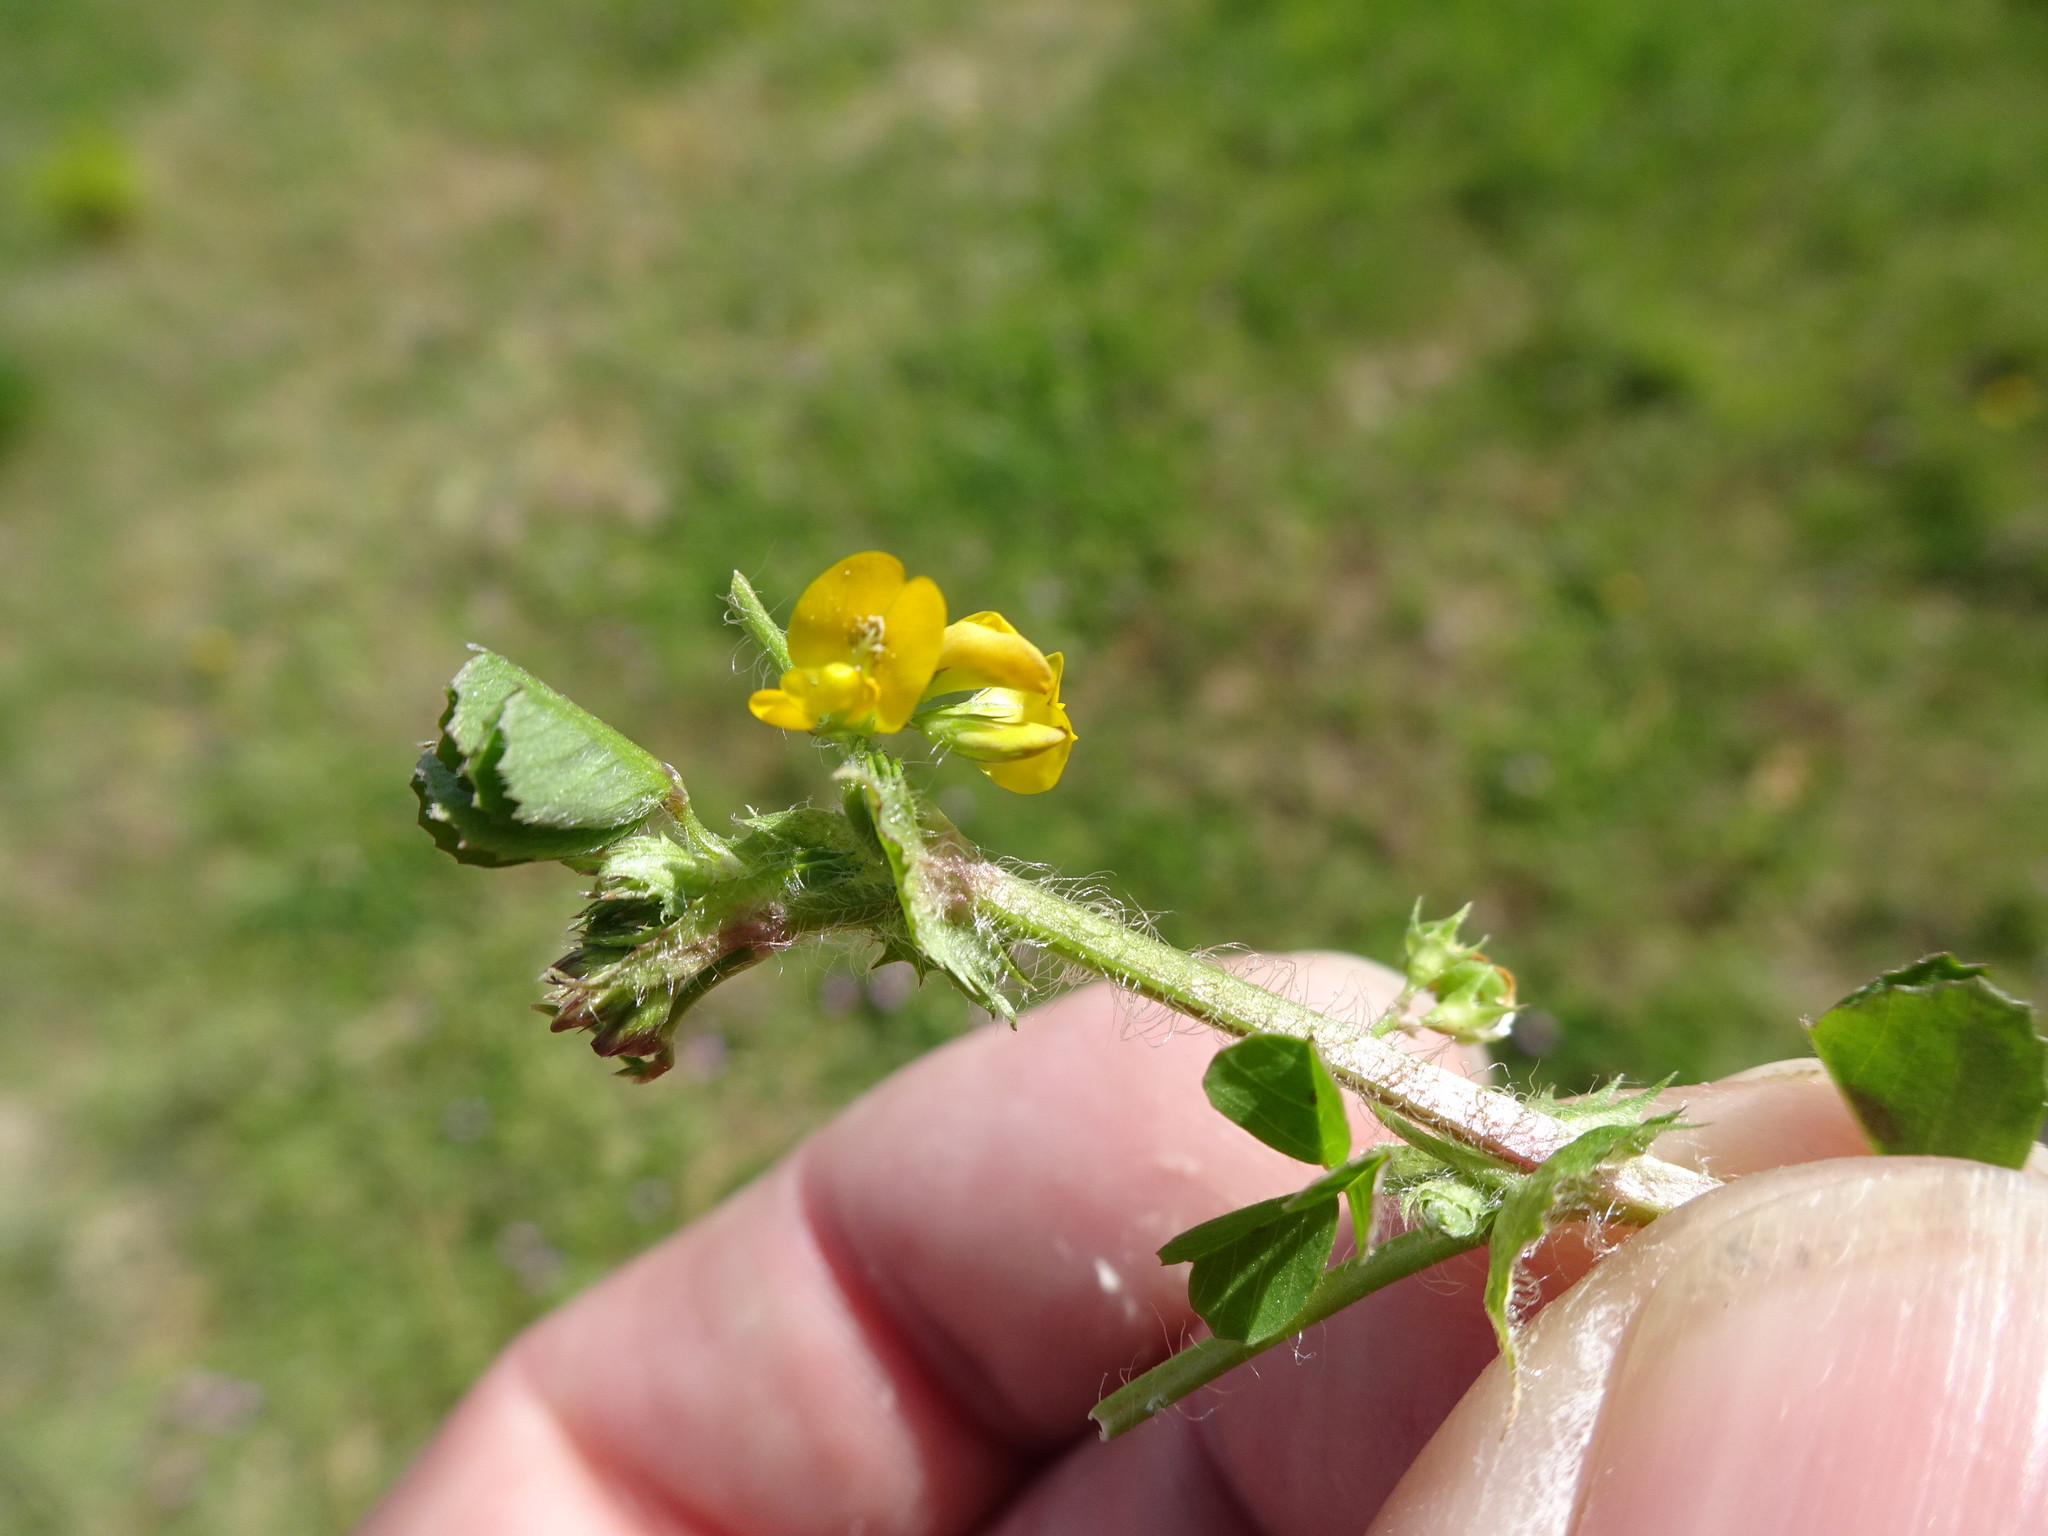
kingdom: Plantae
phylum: Tracheophyta
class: Magnoliopsida
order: Fabales
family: Fabaceae
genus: Medicago
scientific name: Medicago arabica
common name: Spotted medick
